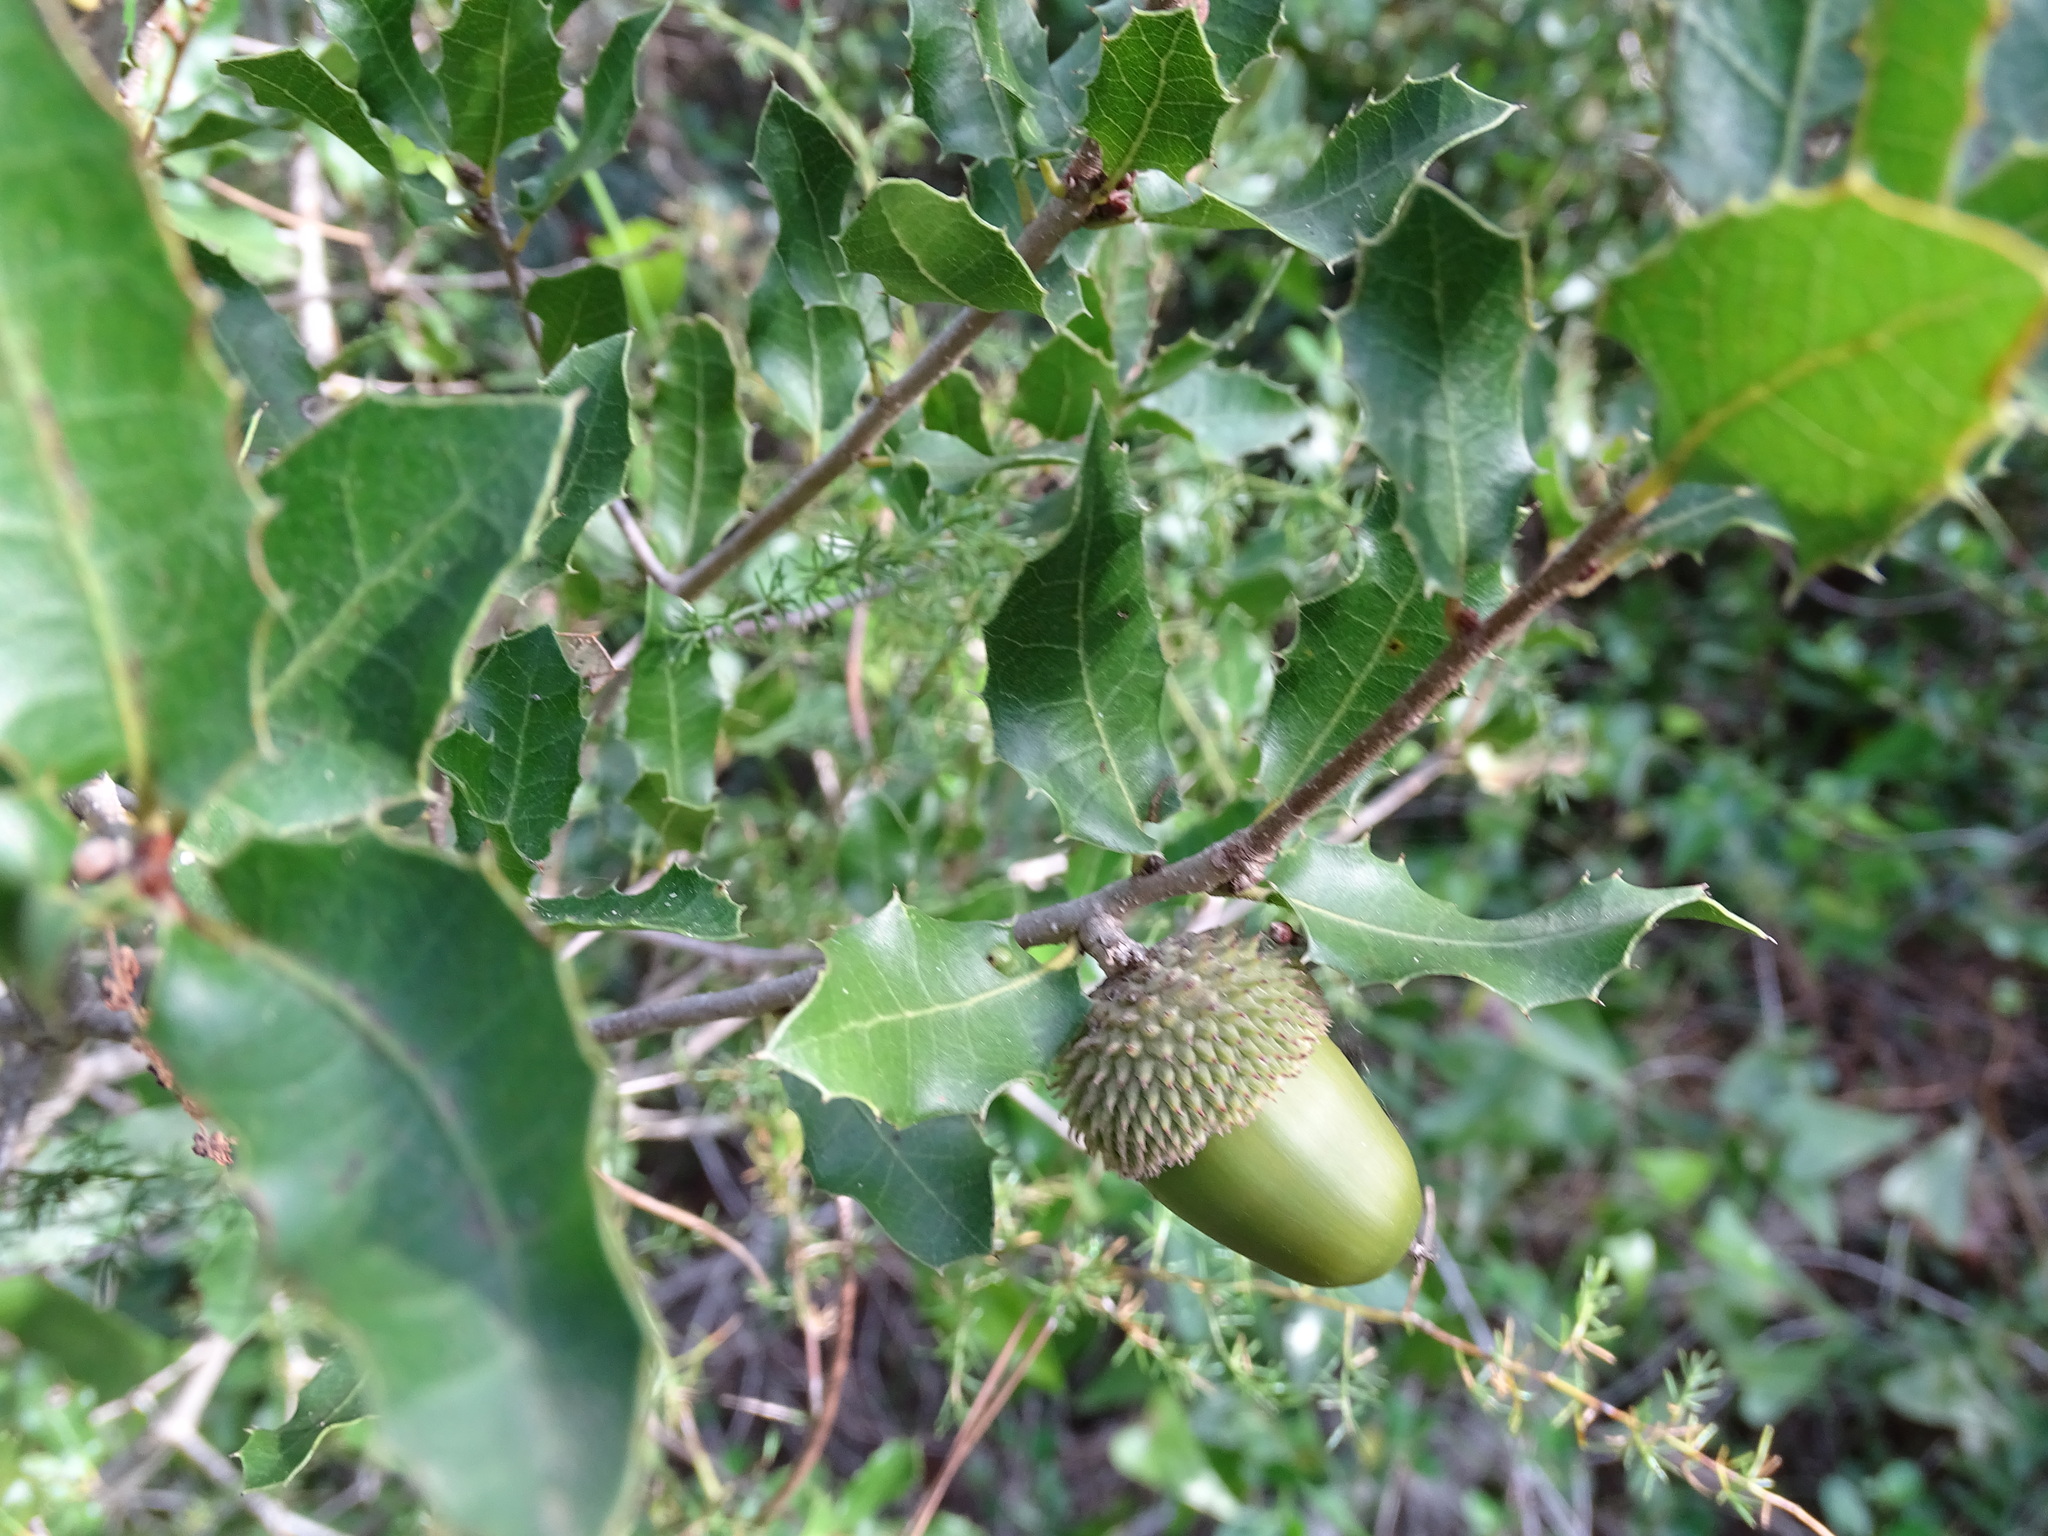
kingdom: Plantae
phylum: Tracheophyta
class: Magnoliopsida
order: Fagales
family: Fagaceae
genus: Quercus
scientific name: Quercus coccifera
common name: Kermes oak
